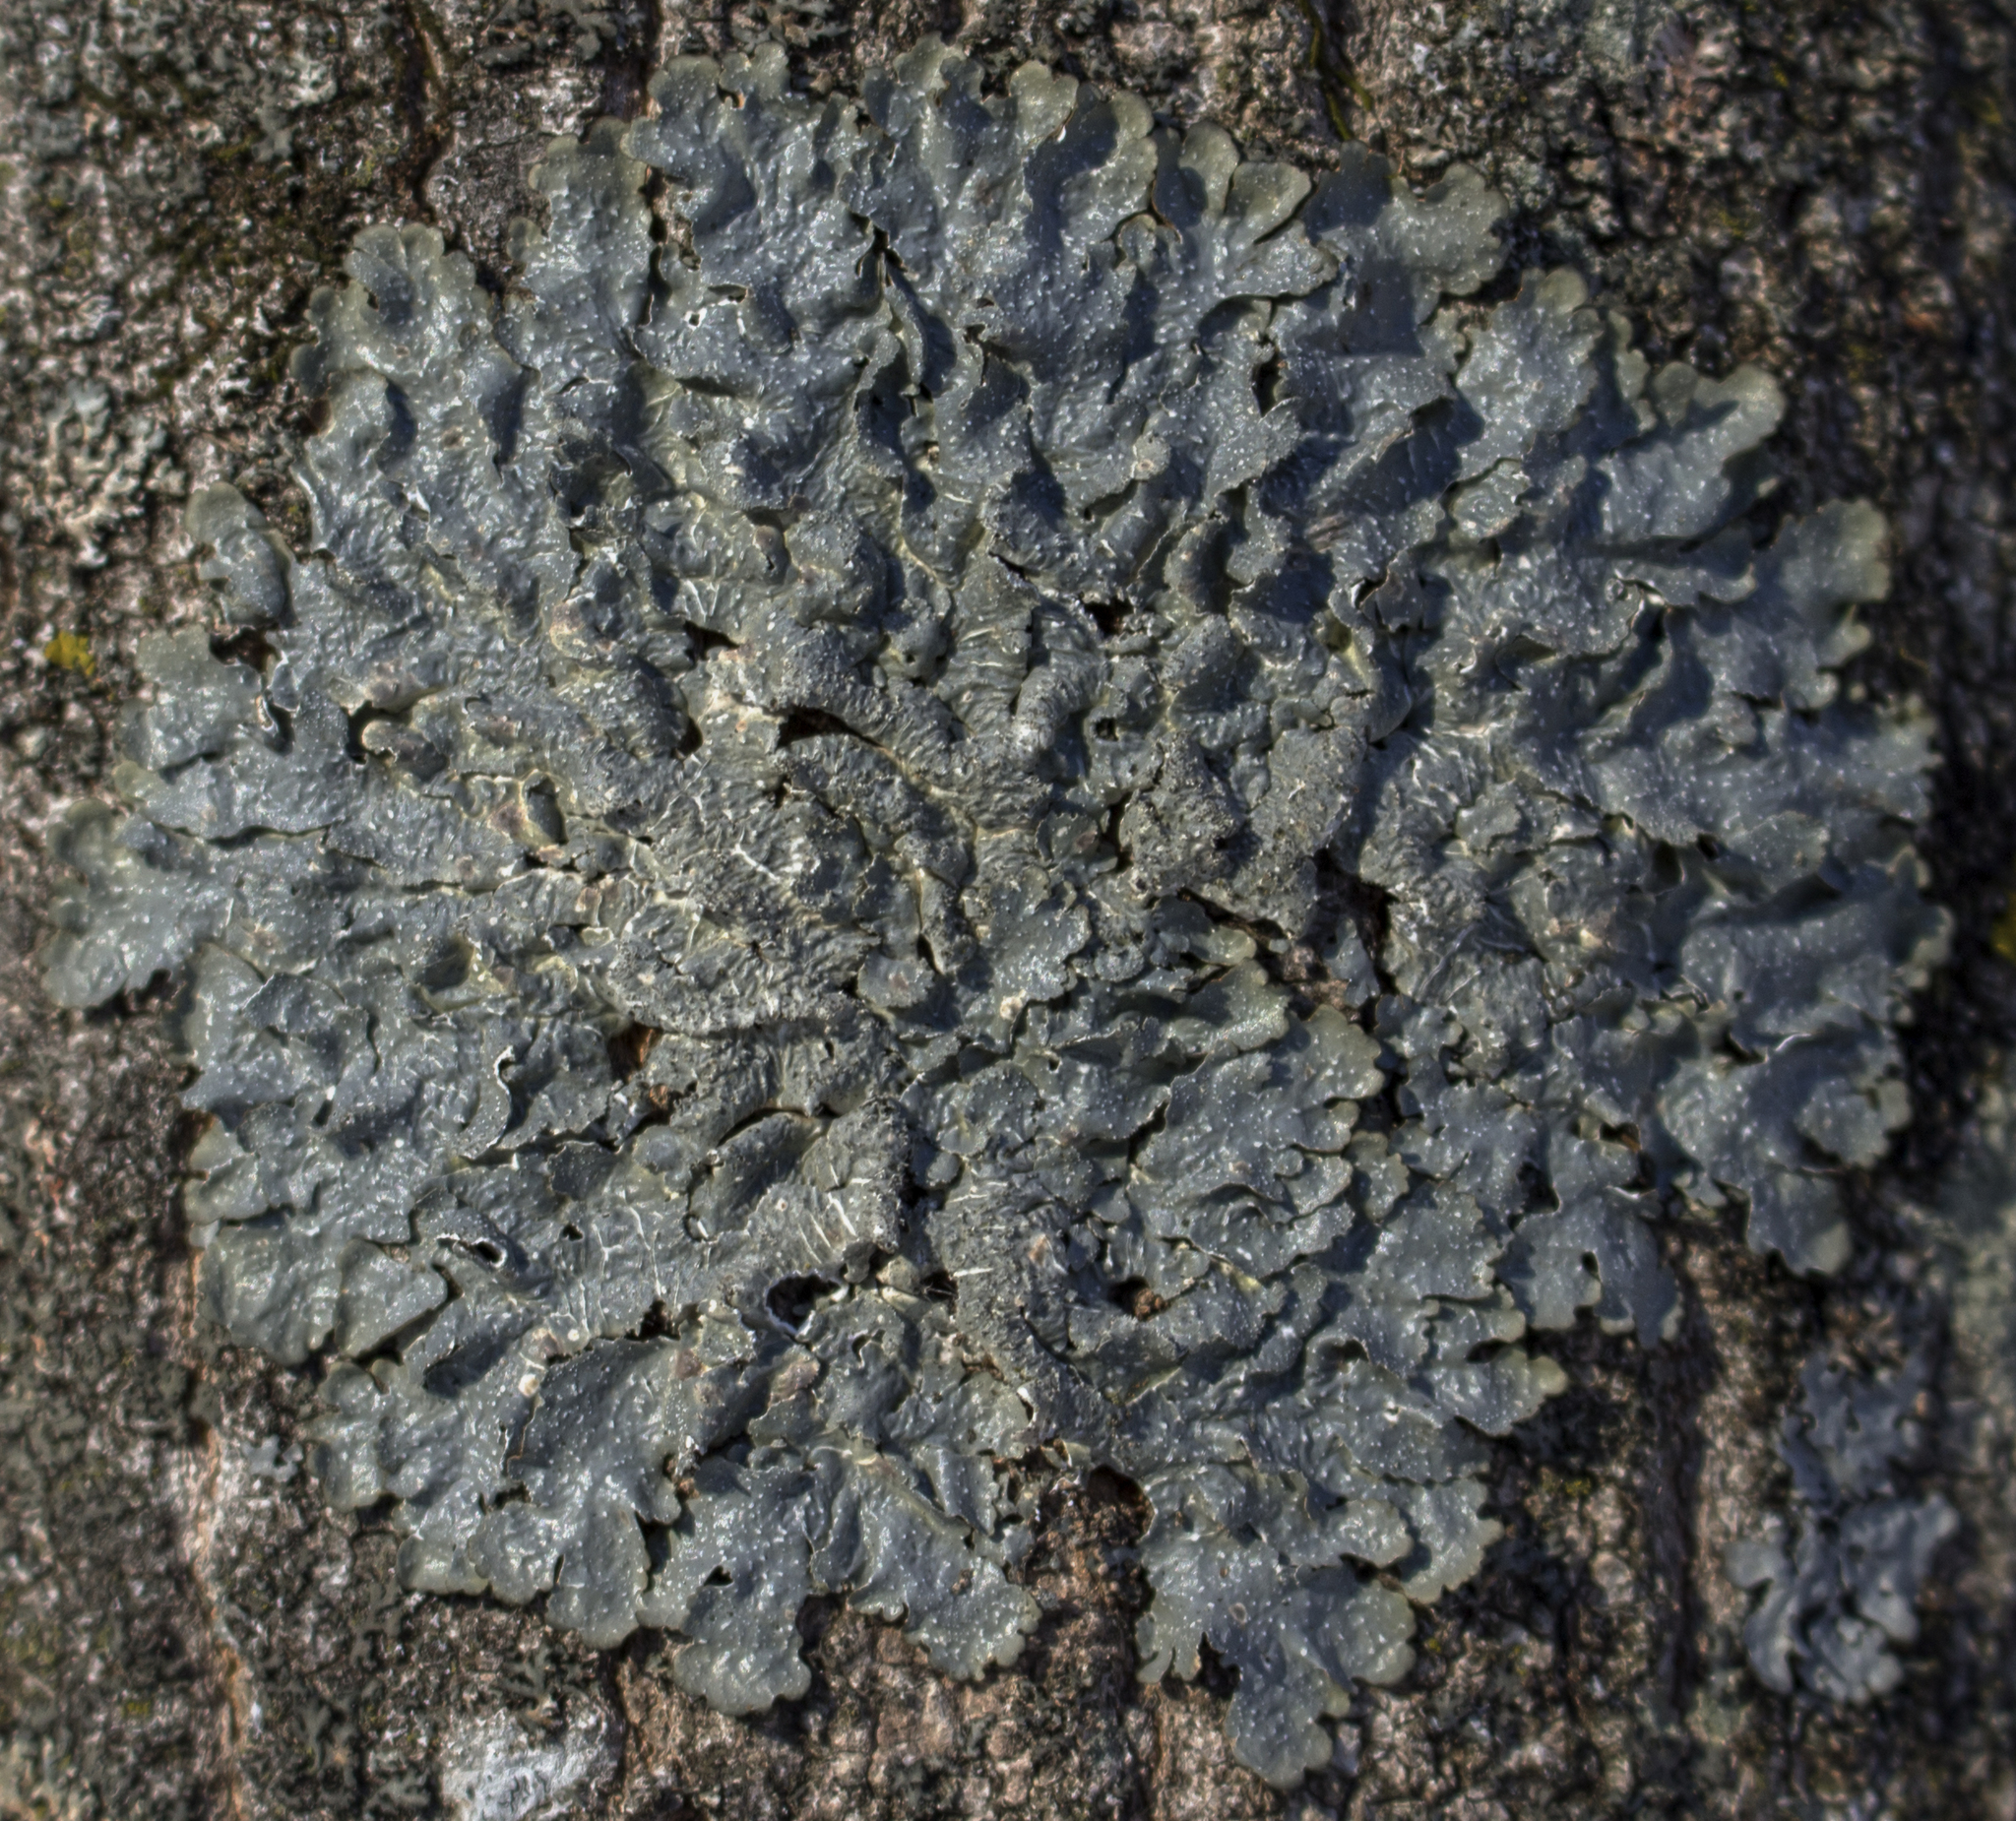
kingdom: Fungi
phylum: Ascomycota
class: Lecanoromycetes
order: Lecanorales
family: Parmeliaceae
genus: Punctelia
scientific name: Punctelia rudecta
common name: Rough speckled shield lichen
